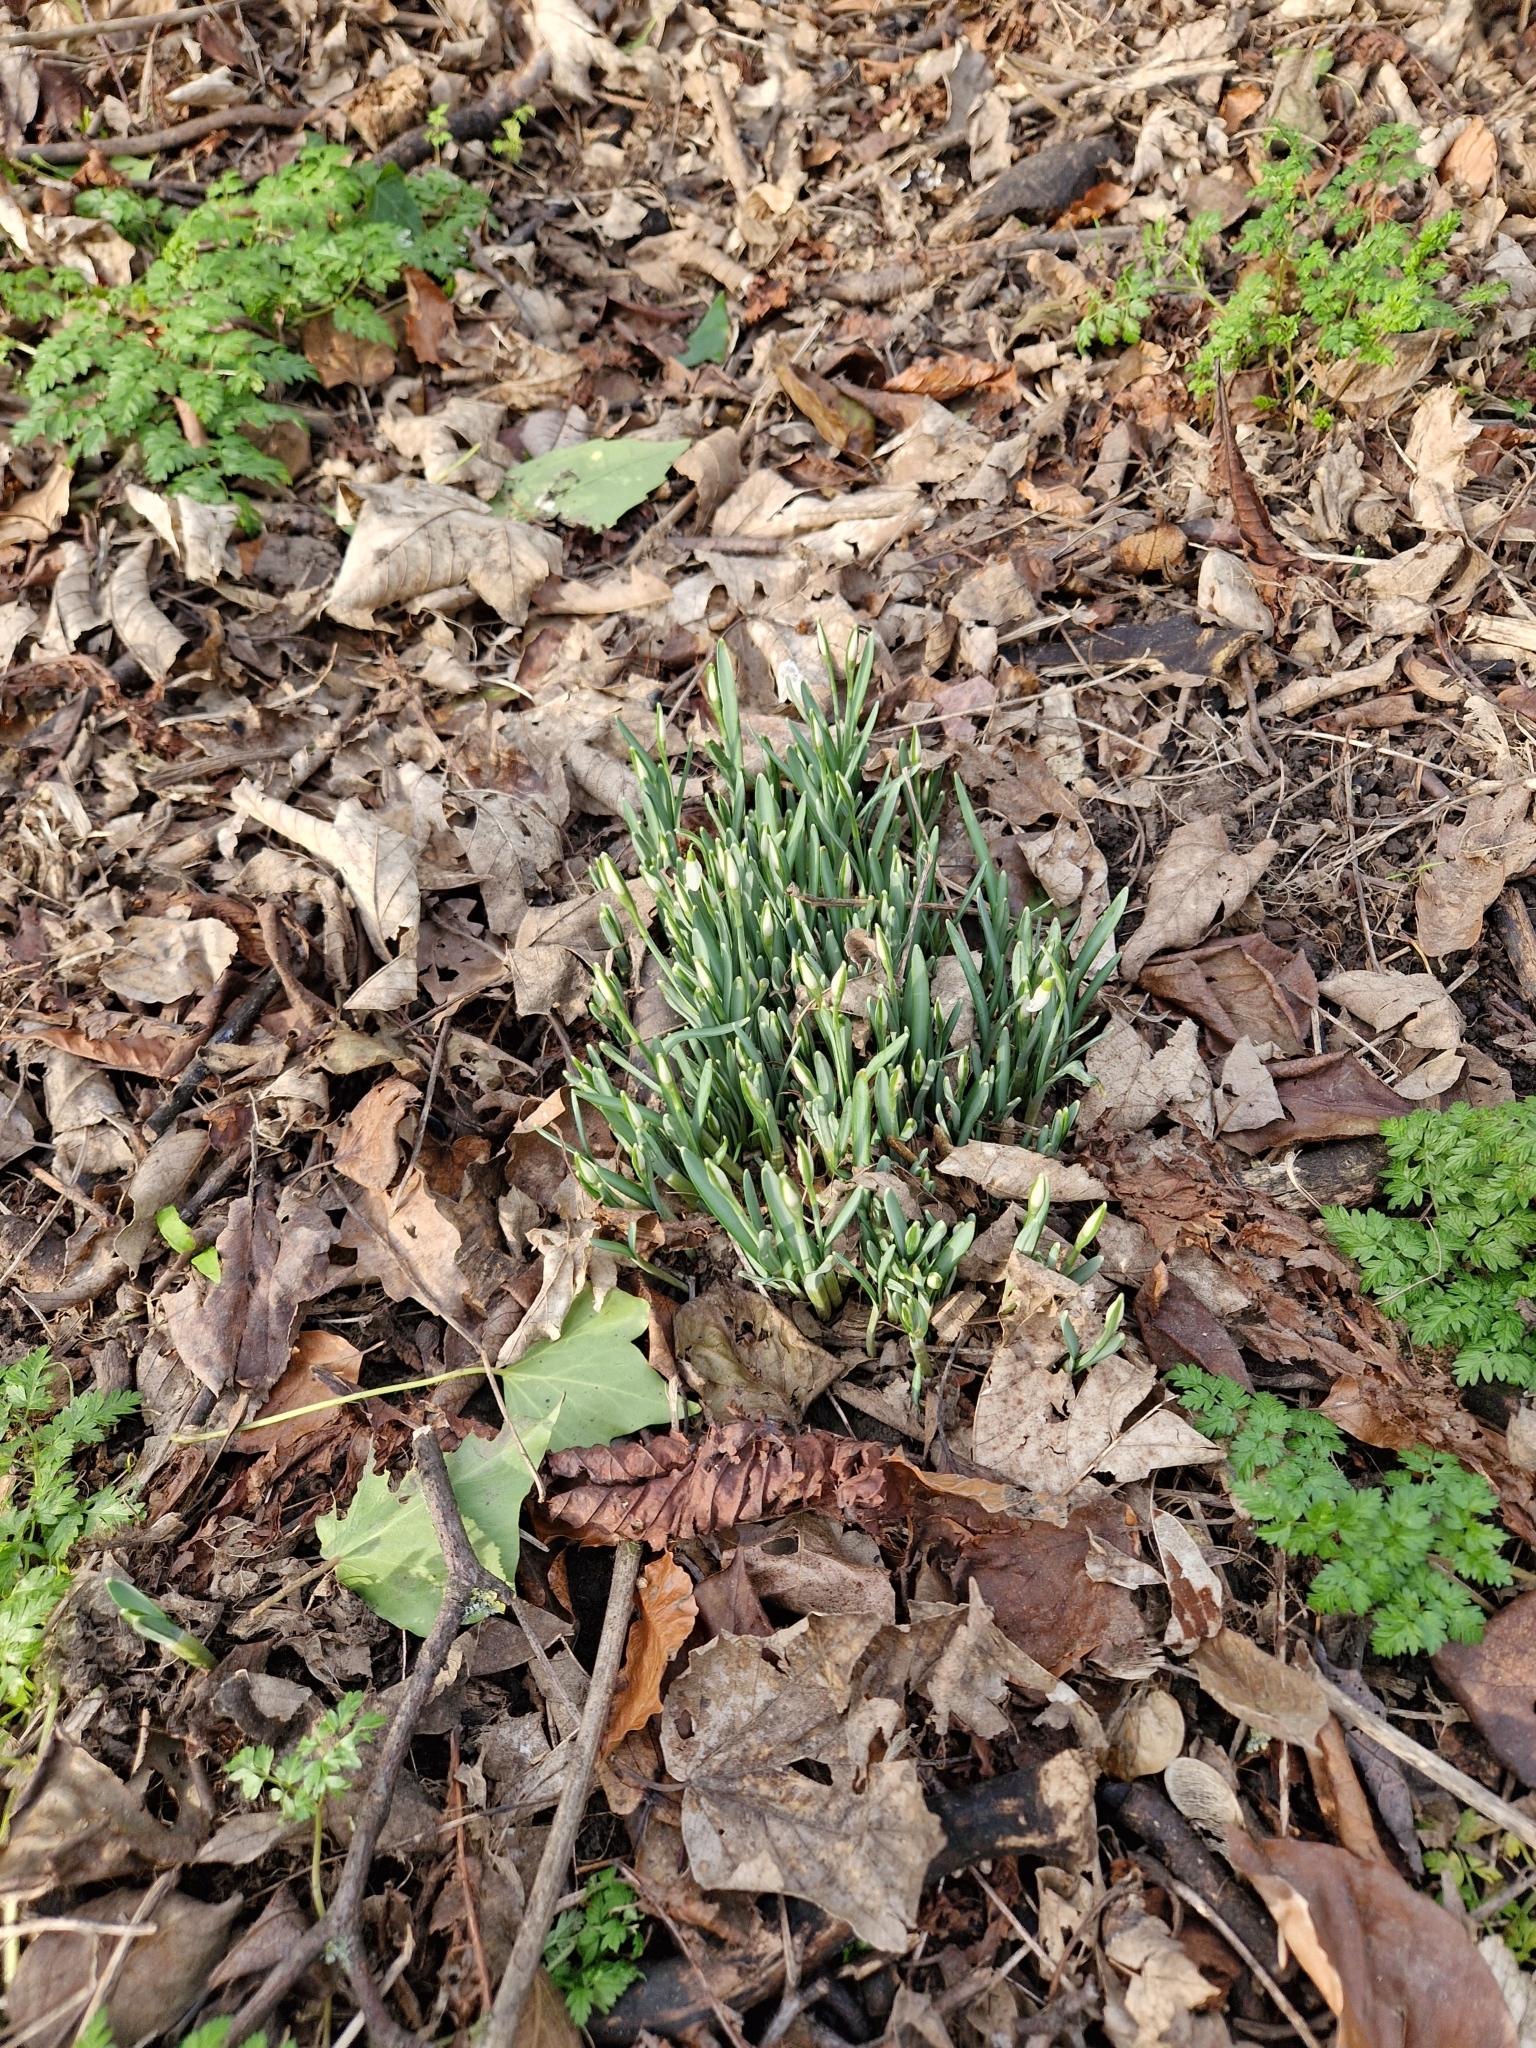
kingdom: Plantae
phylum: Tracheophyta
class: Liliopsida
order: Asparagales
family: Amaryllidaceae
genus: Galanthus
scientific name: Galanthus nivalis
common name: Snowdrop
